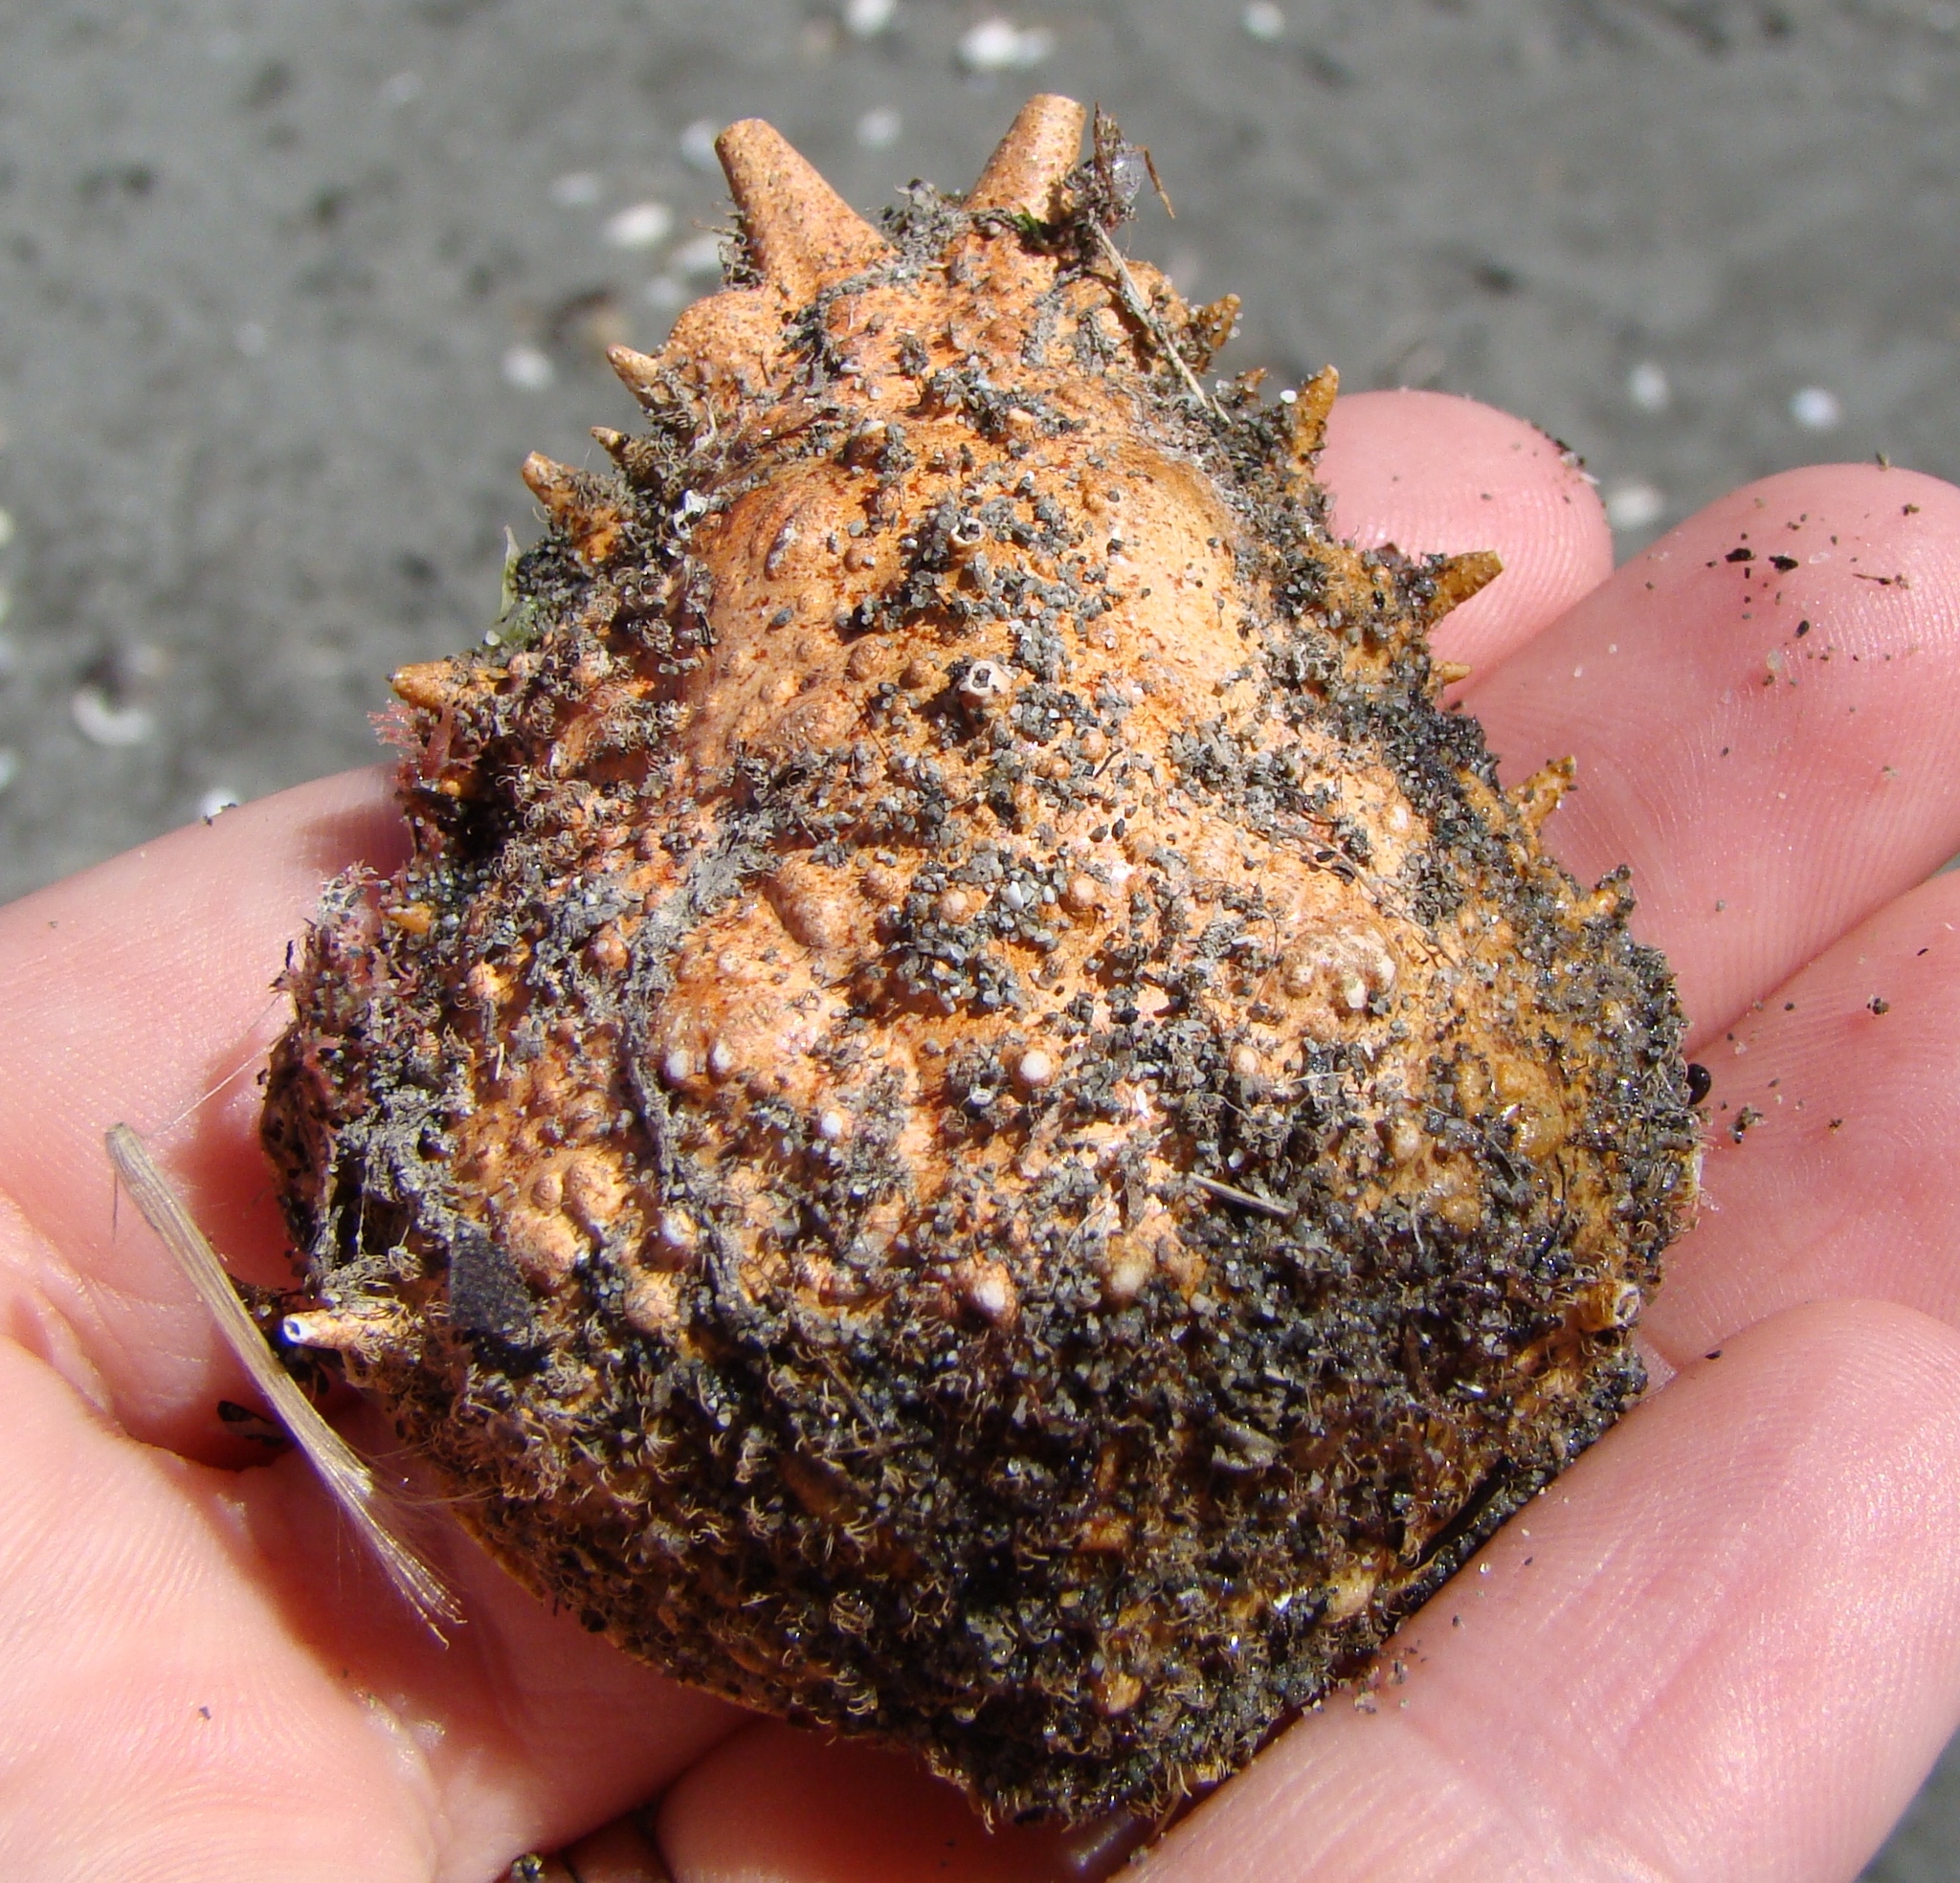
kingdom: Animalia
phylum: Arthropoda
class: Malacostraca
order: Decapoda
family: Majidae
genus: Notomithrax
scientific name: Notomithrax ursus
